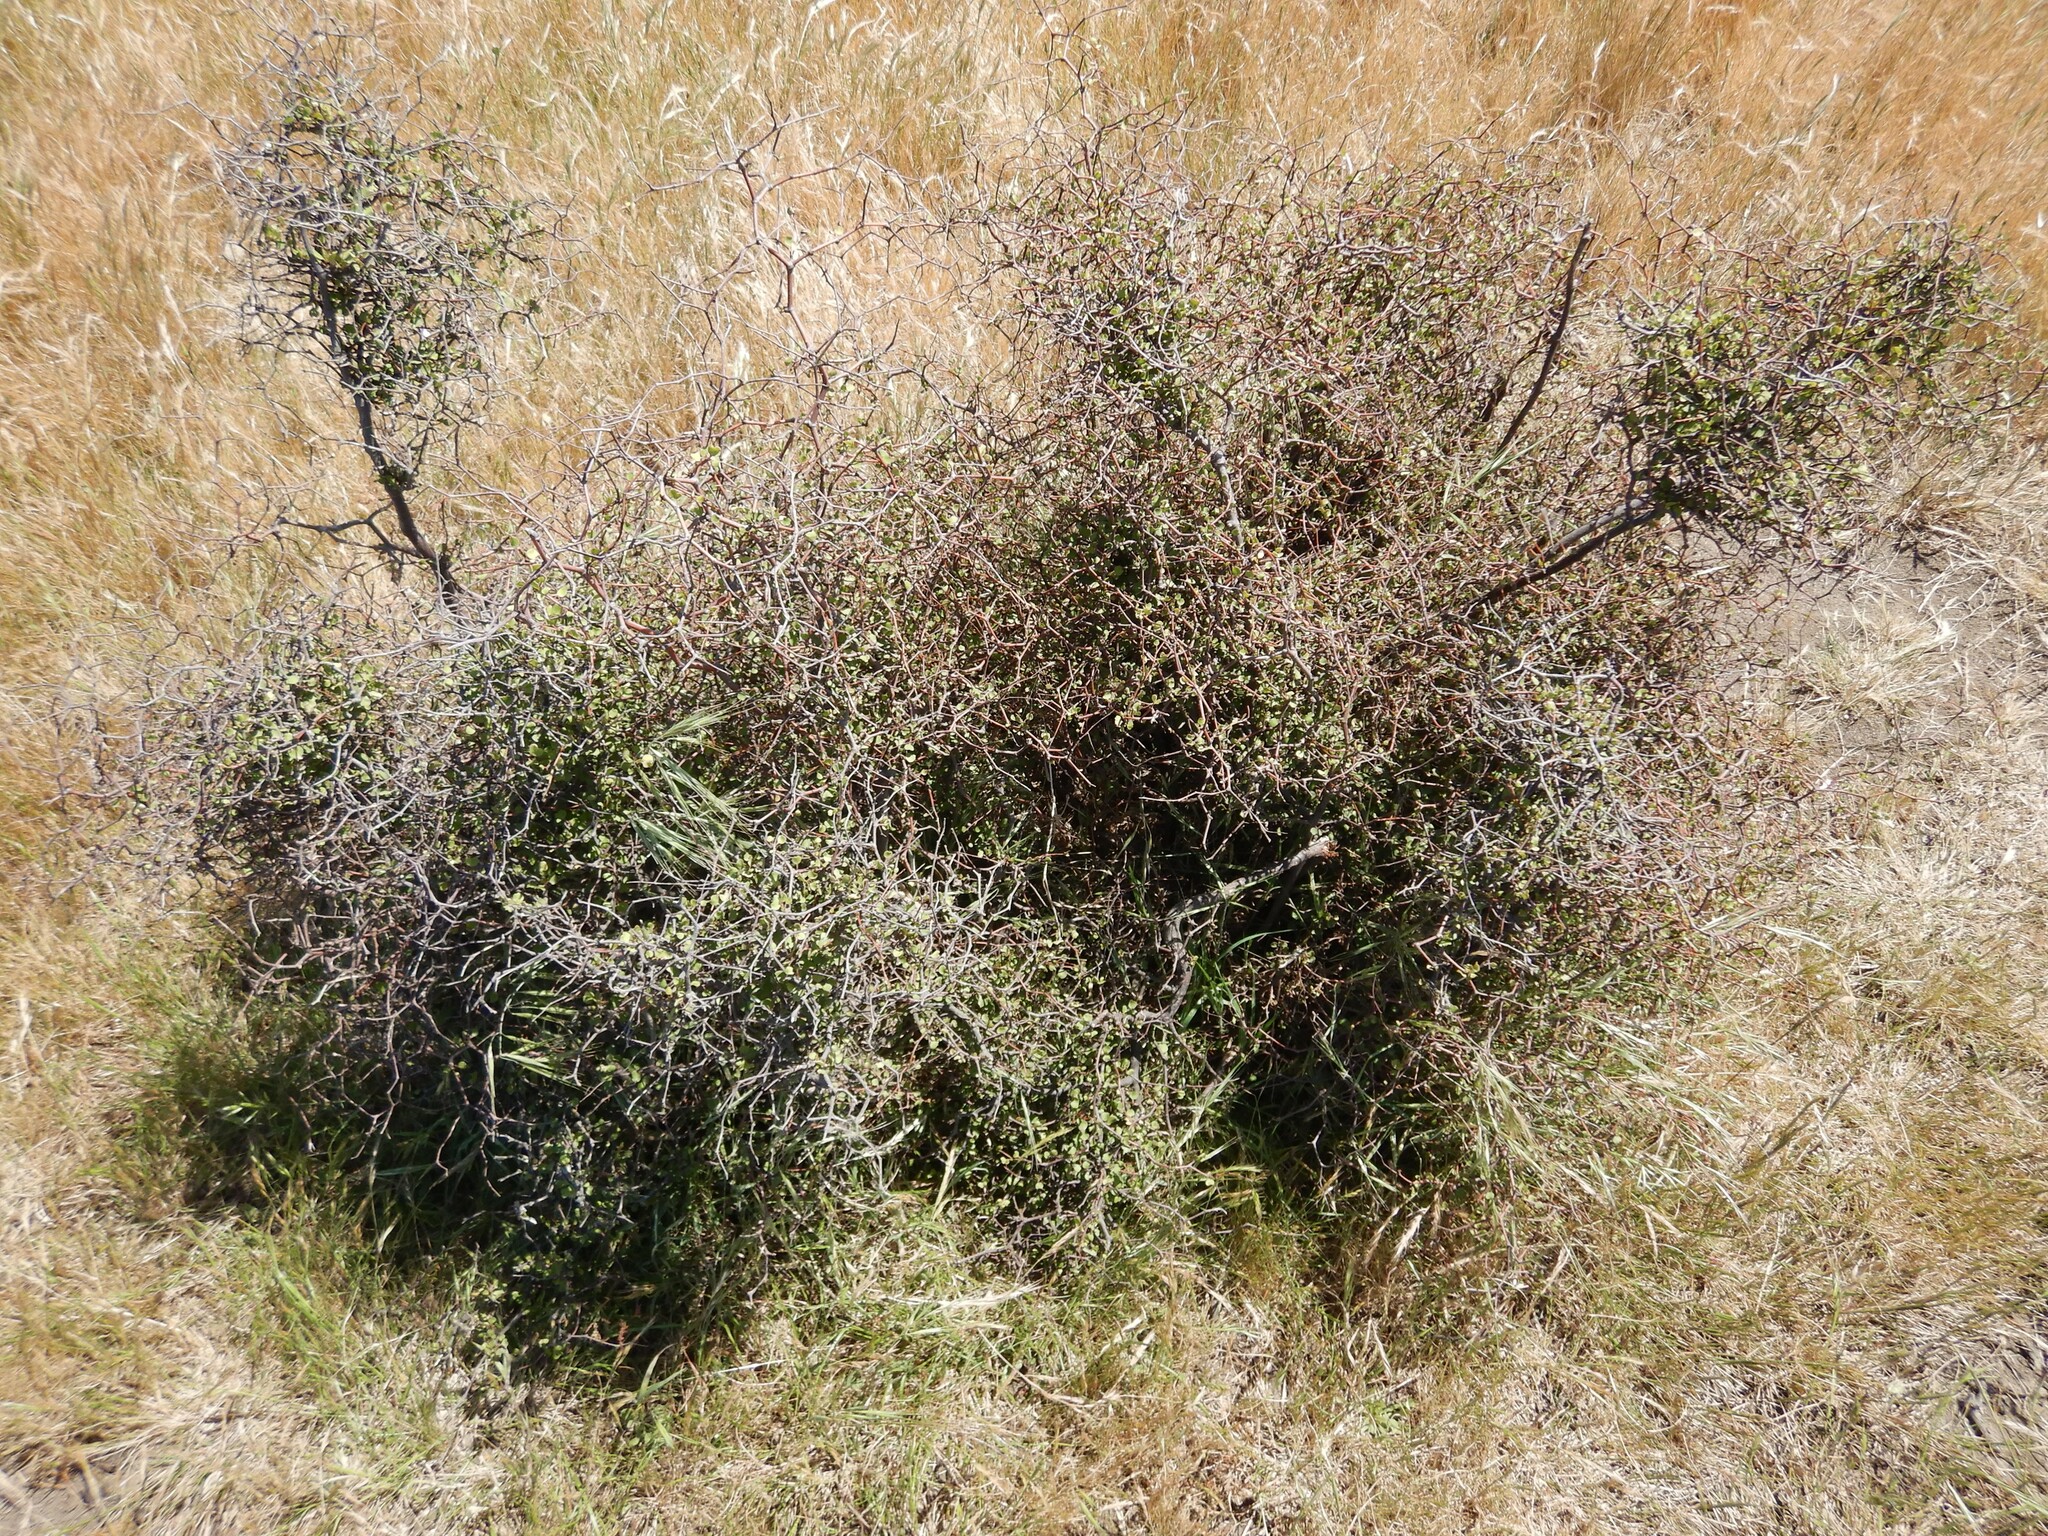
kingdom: Plantae
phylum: Tracheophyta
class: Magnoliopsida
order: Caryophyllales
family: Polygonaceae
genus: Muehlenbeckia
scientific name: Muehlenbeckia astonii
